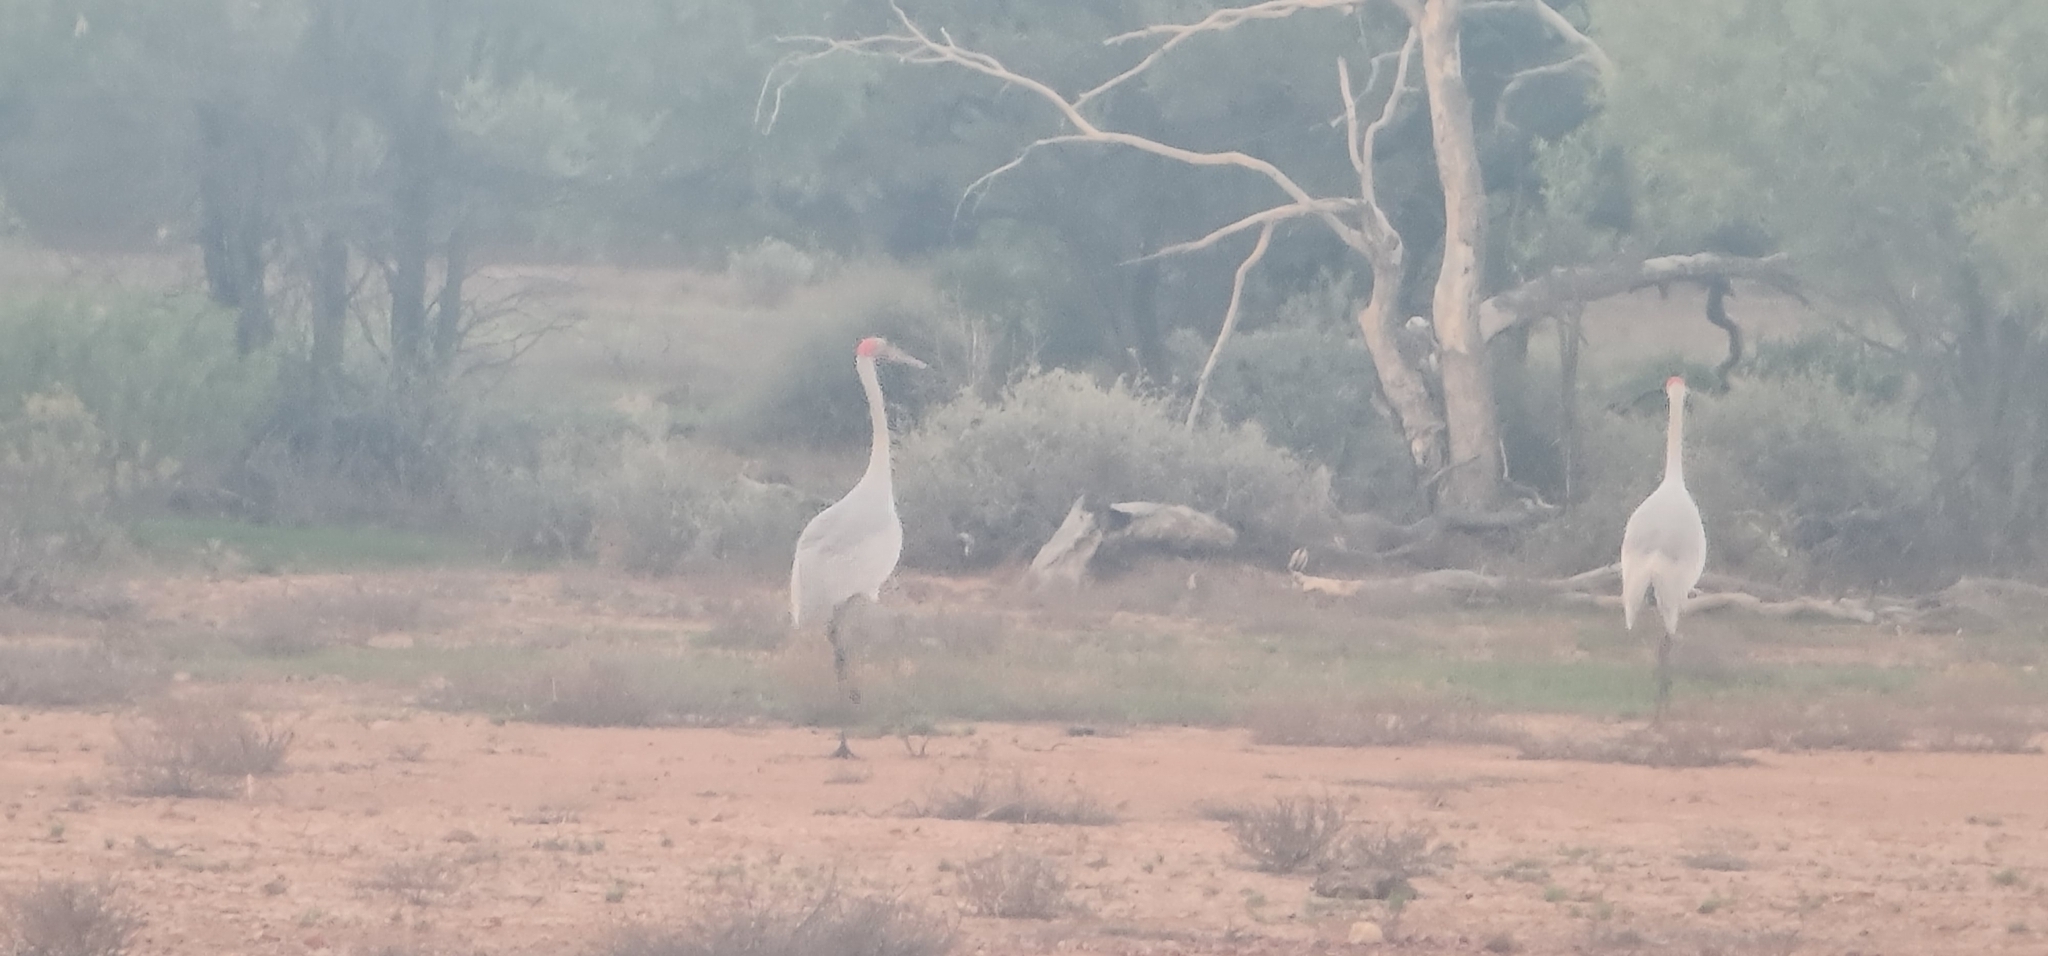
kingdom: Animalia
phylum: Chordata
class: Aves
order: Gruiformes
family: Gruidae
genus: Grus
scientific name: Grus rubicunda
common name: Brolga
